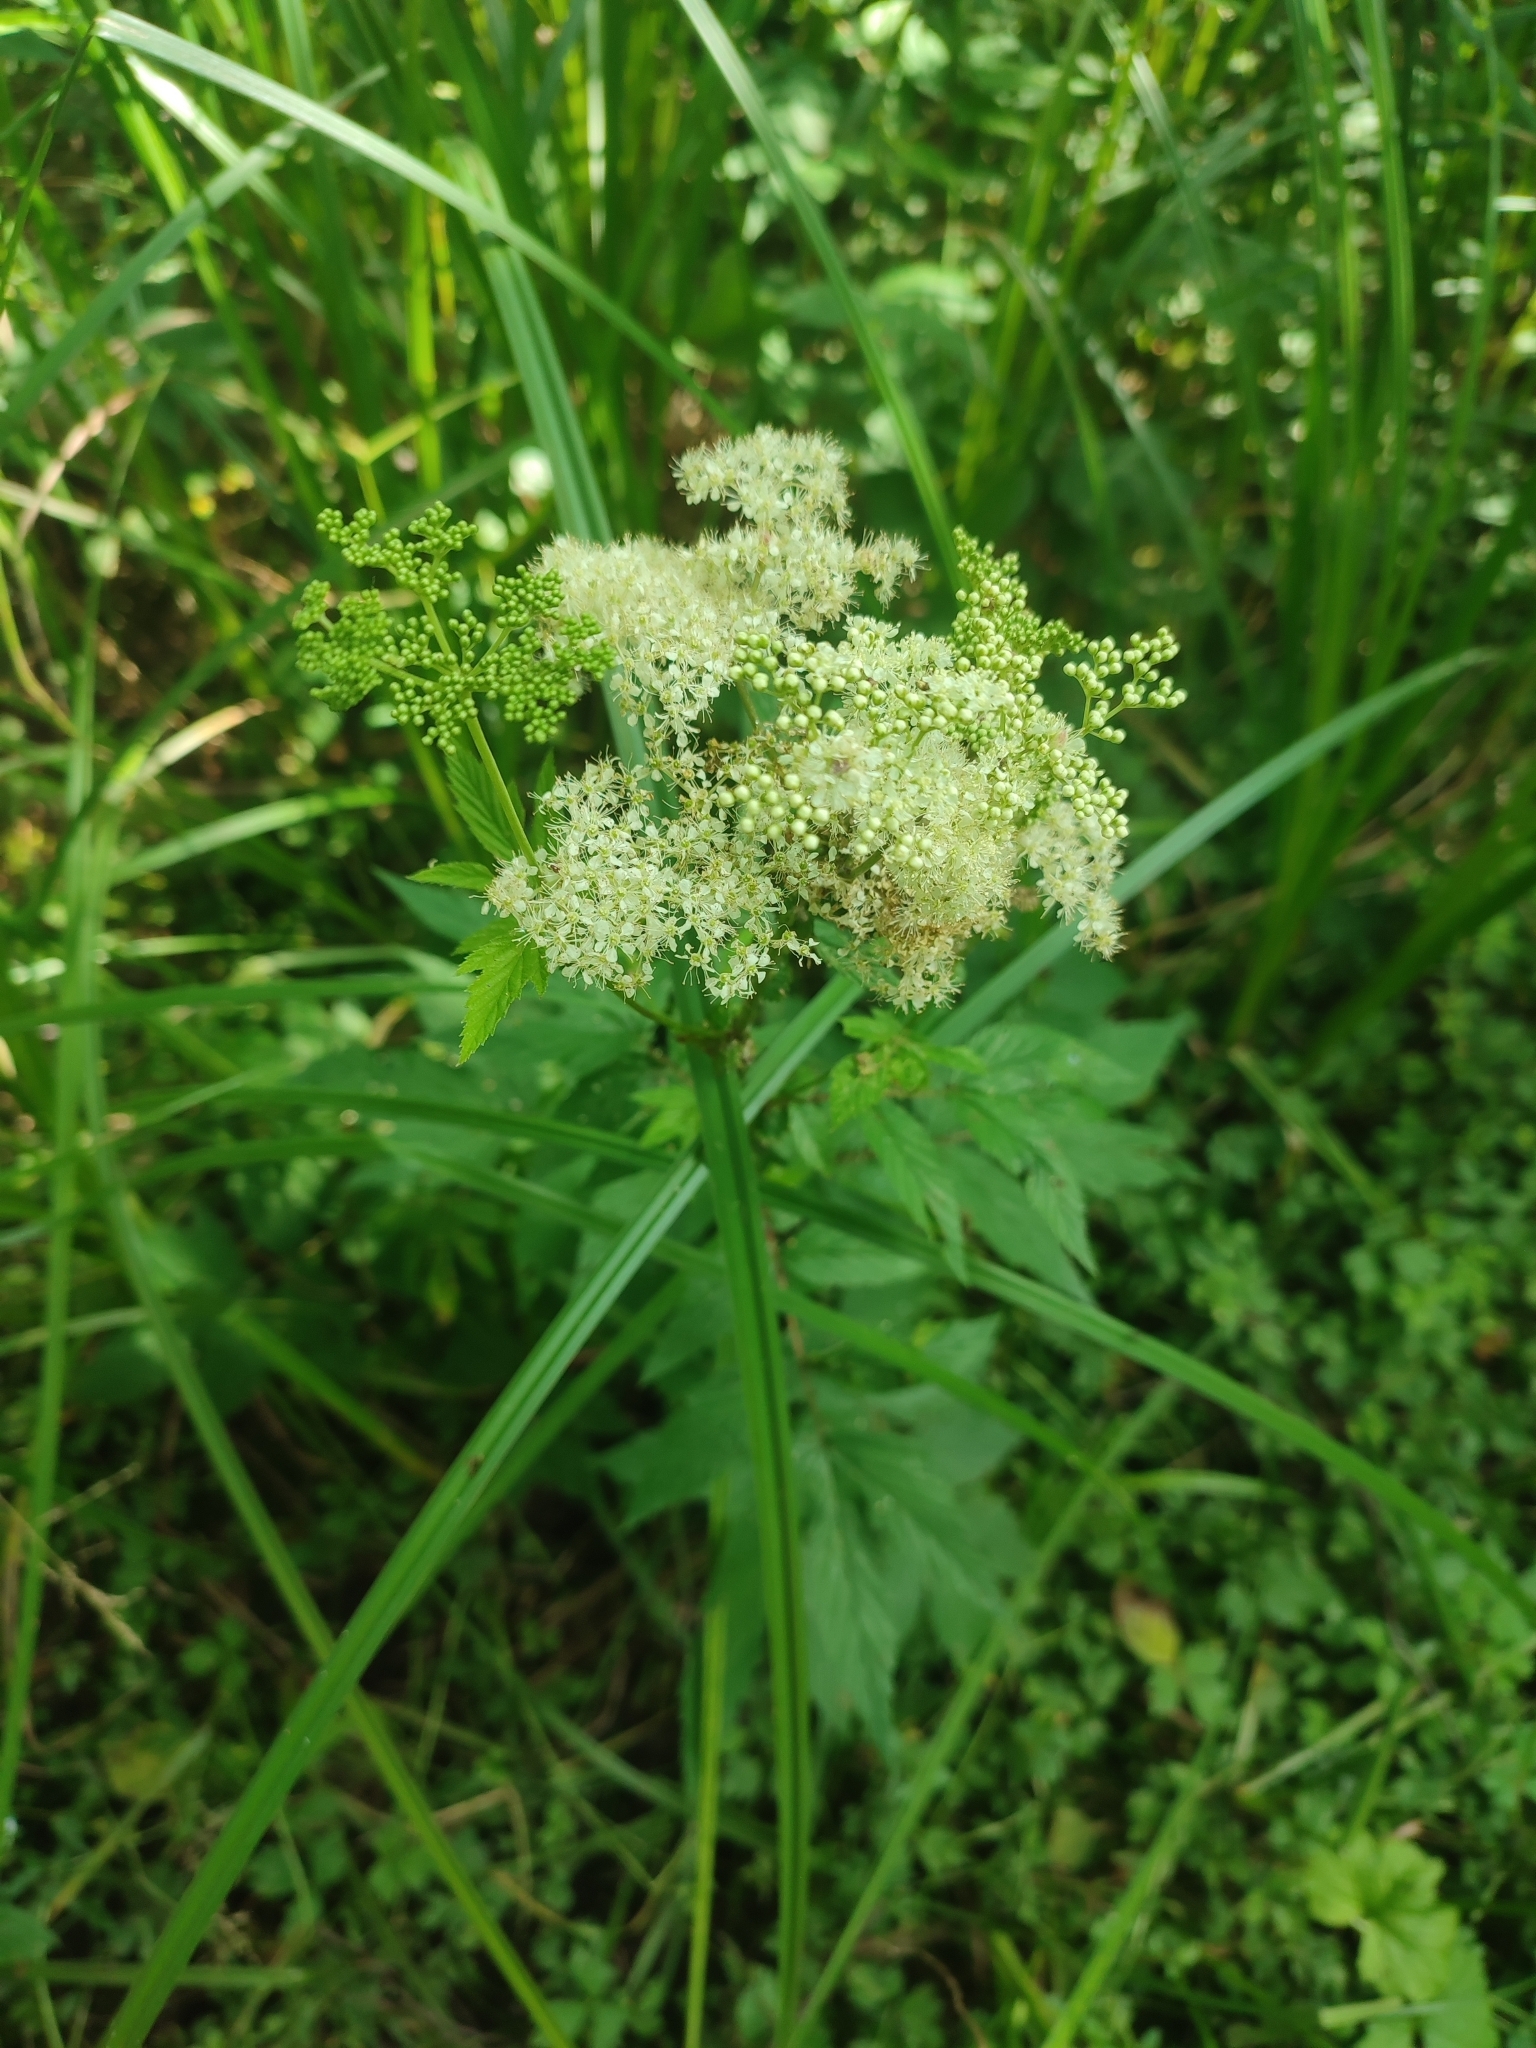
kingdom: Plantae
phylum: Tracheophyta
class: Magnoliopsida
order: Rosales
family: Rosaceae
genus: Filipendula
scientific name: Filipendula ulmaria
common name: Meadowsweet
